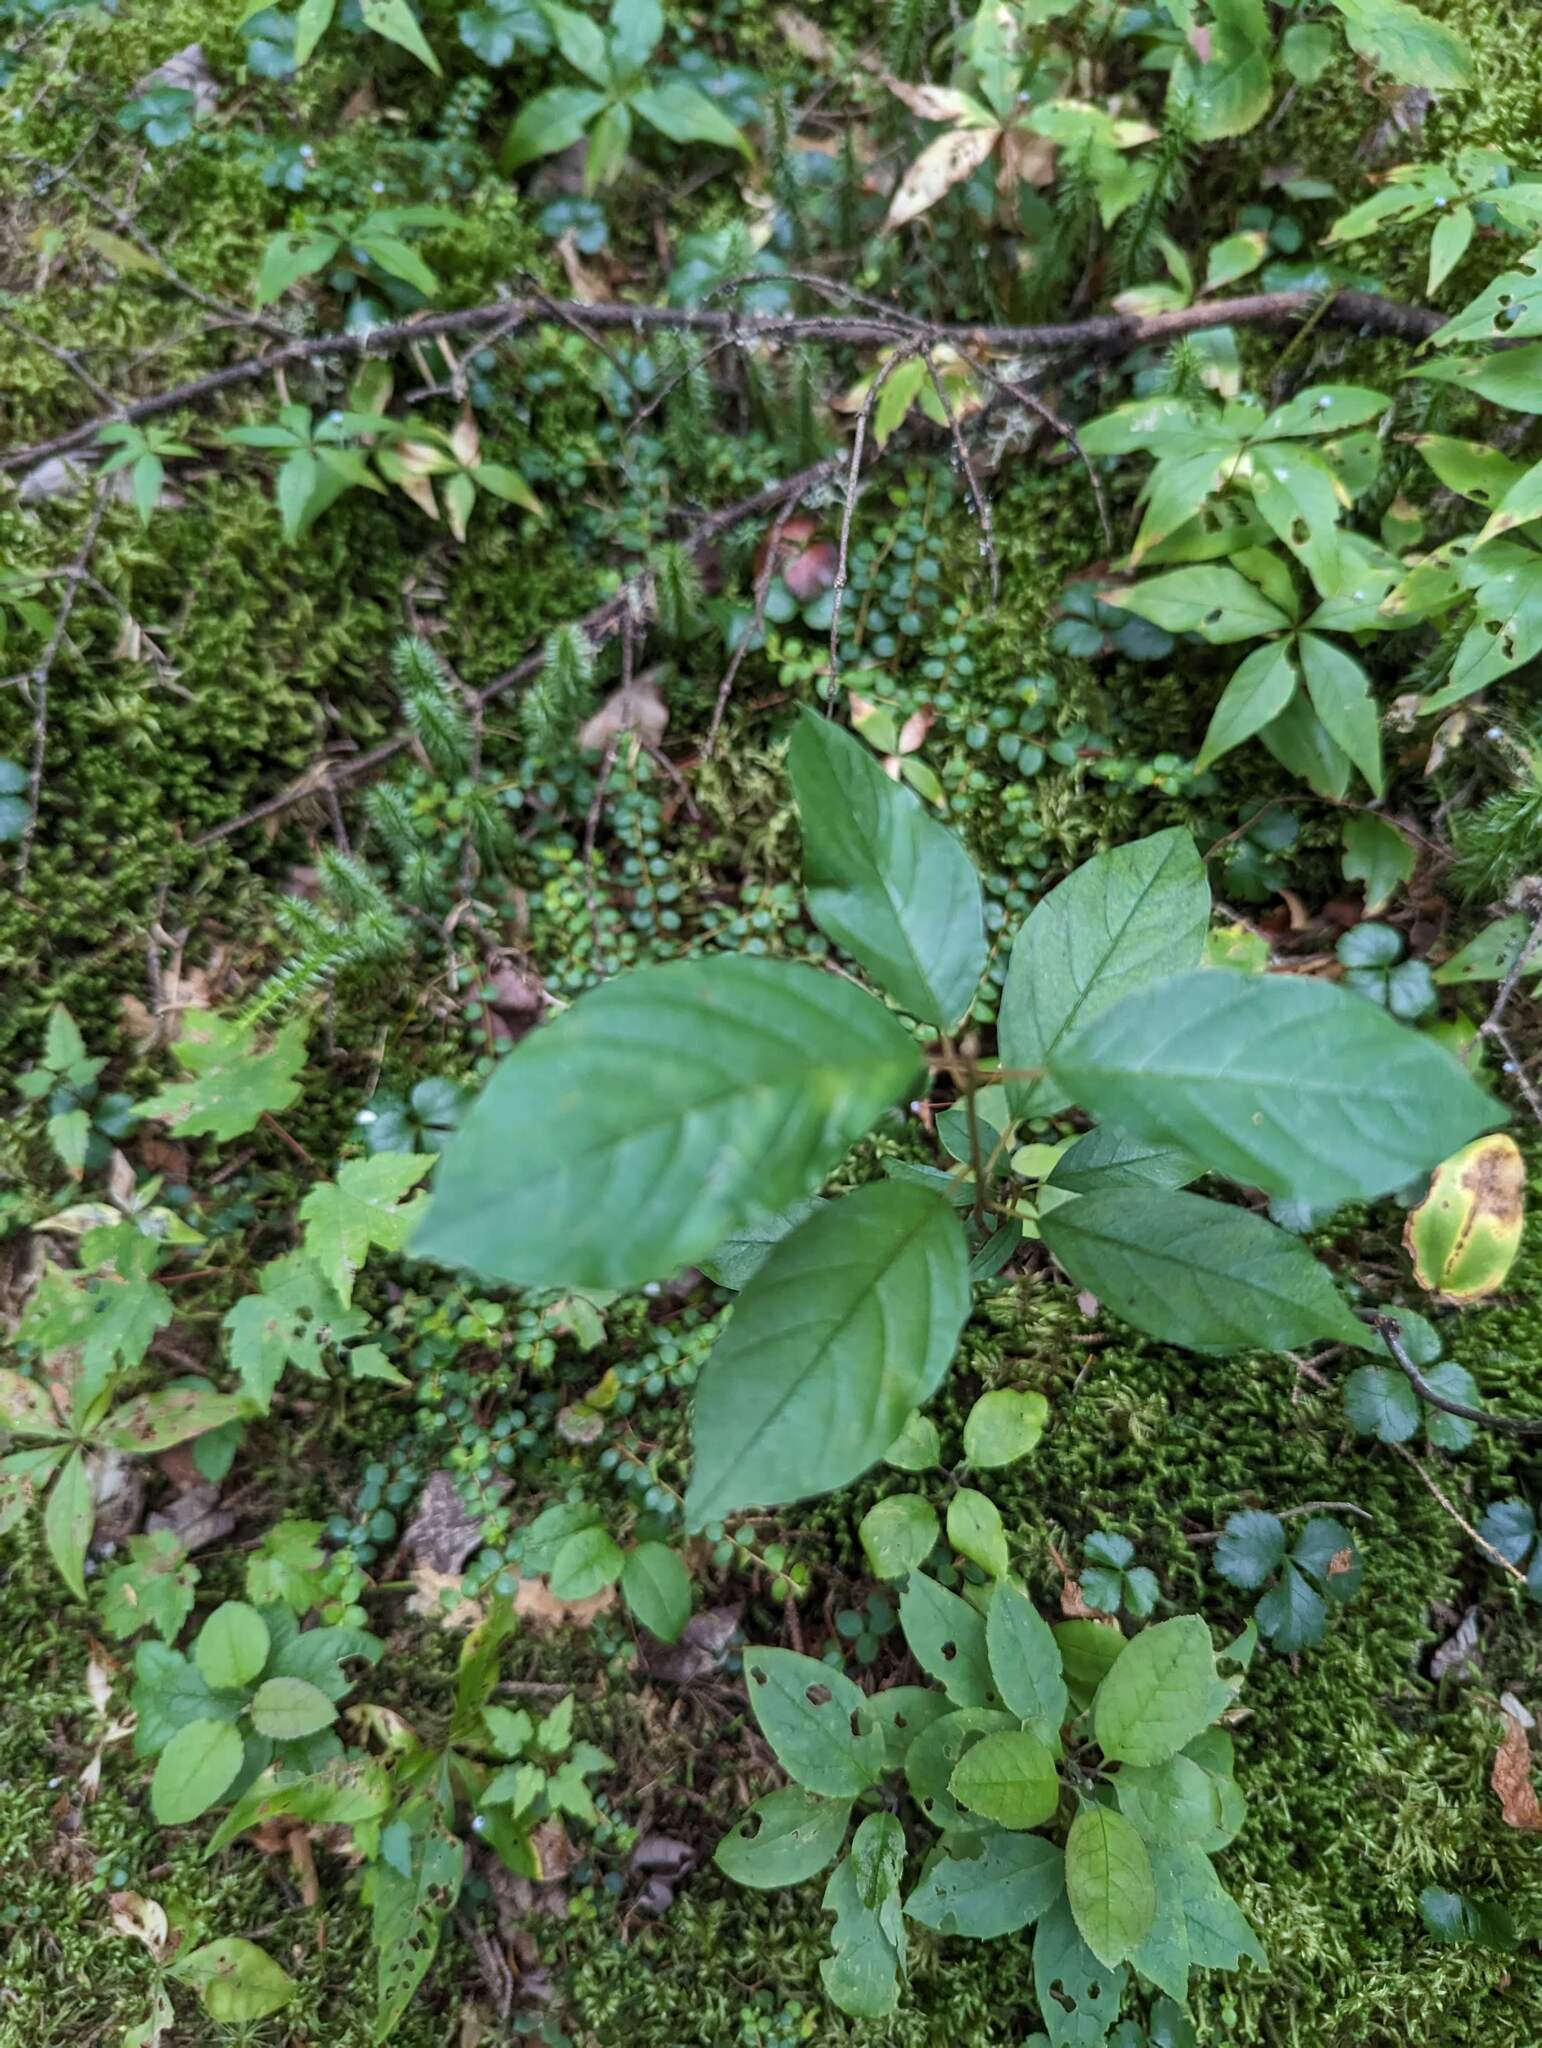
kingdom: Plantae
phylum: Tracheophyta
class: Magnoliopsida
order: Rosales
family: Rhamnaceae
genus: Frangula
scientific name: Frangula alnus
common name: Alder buckthorn
